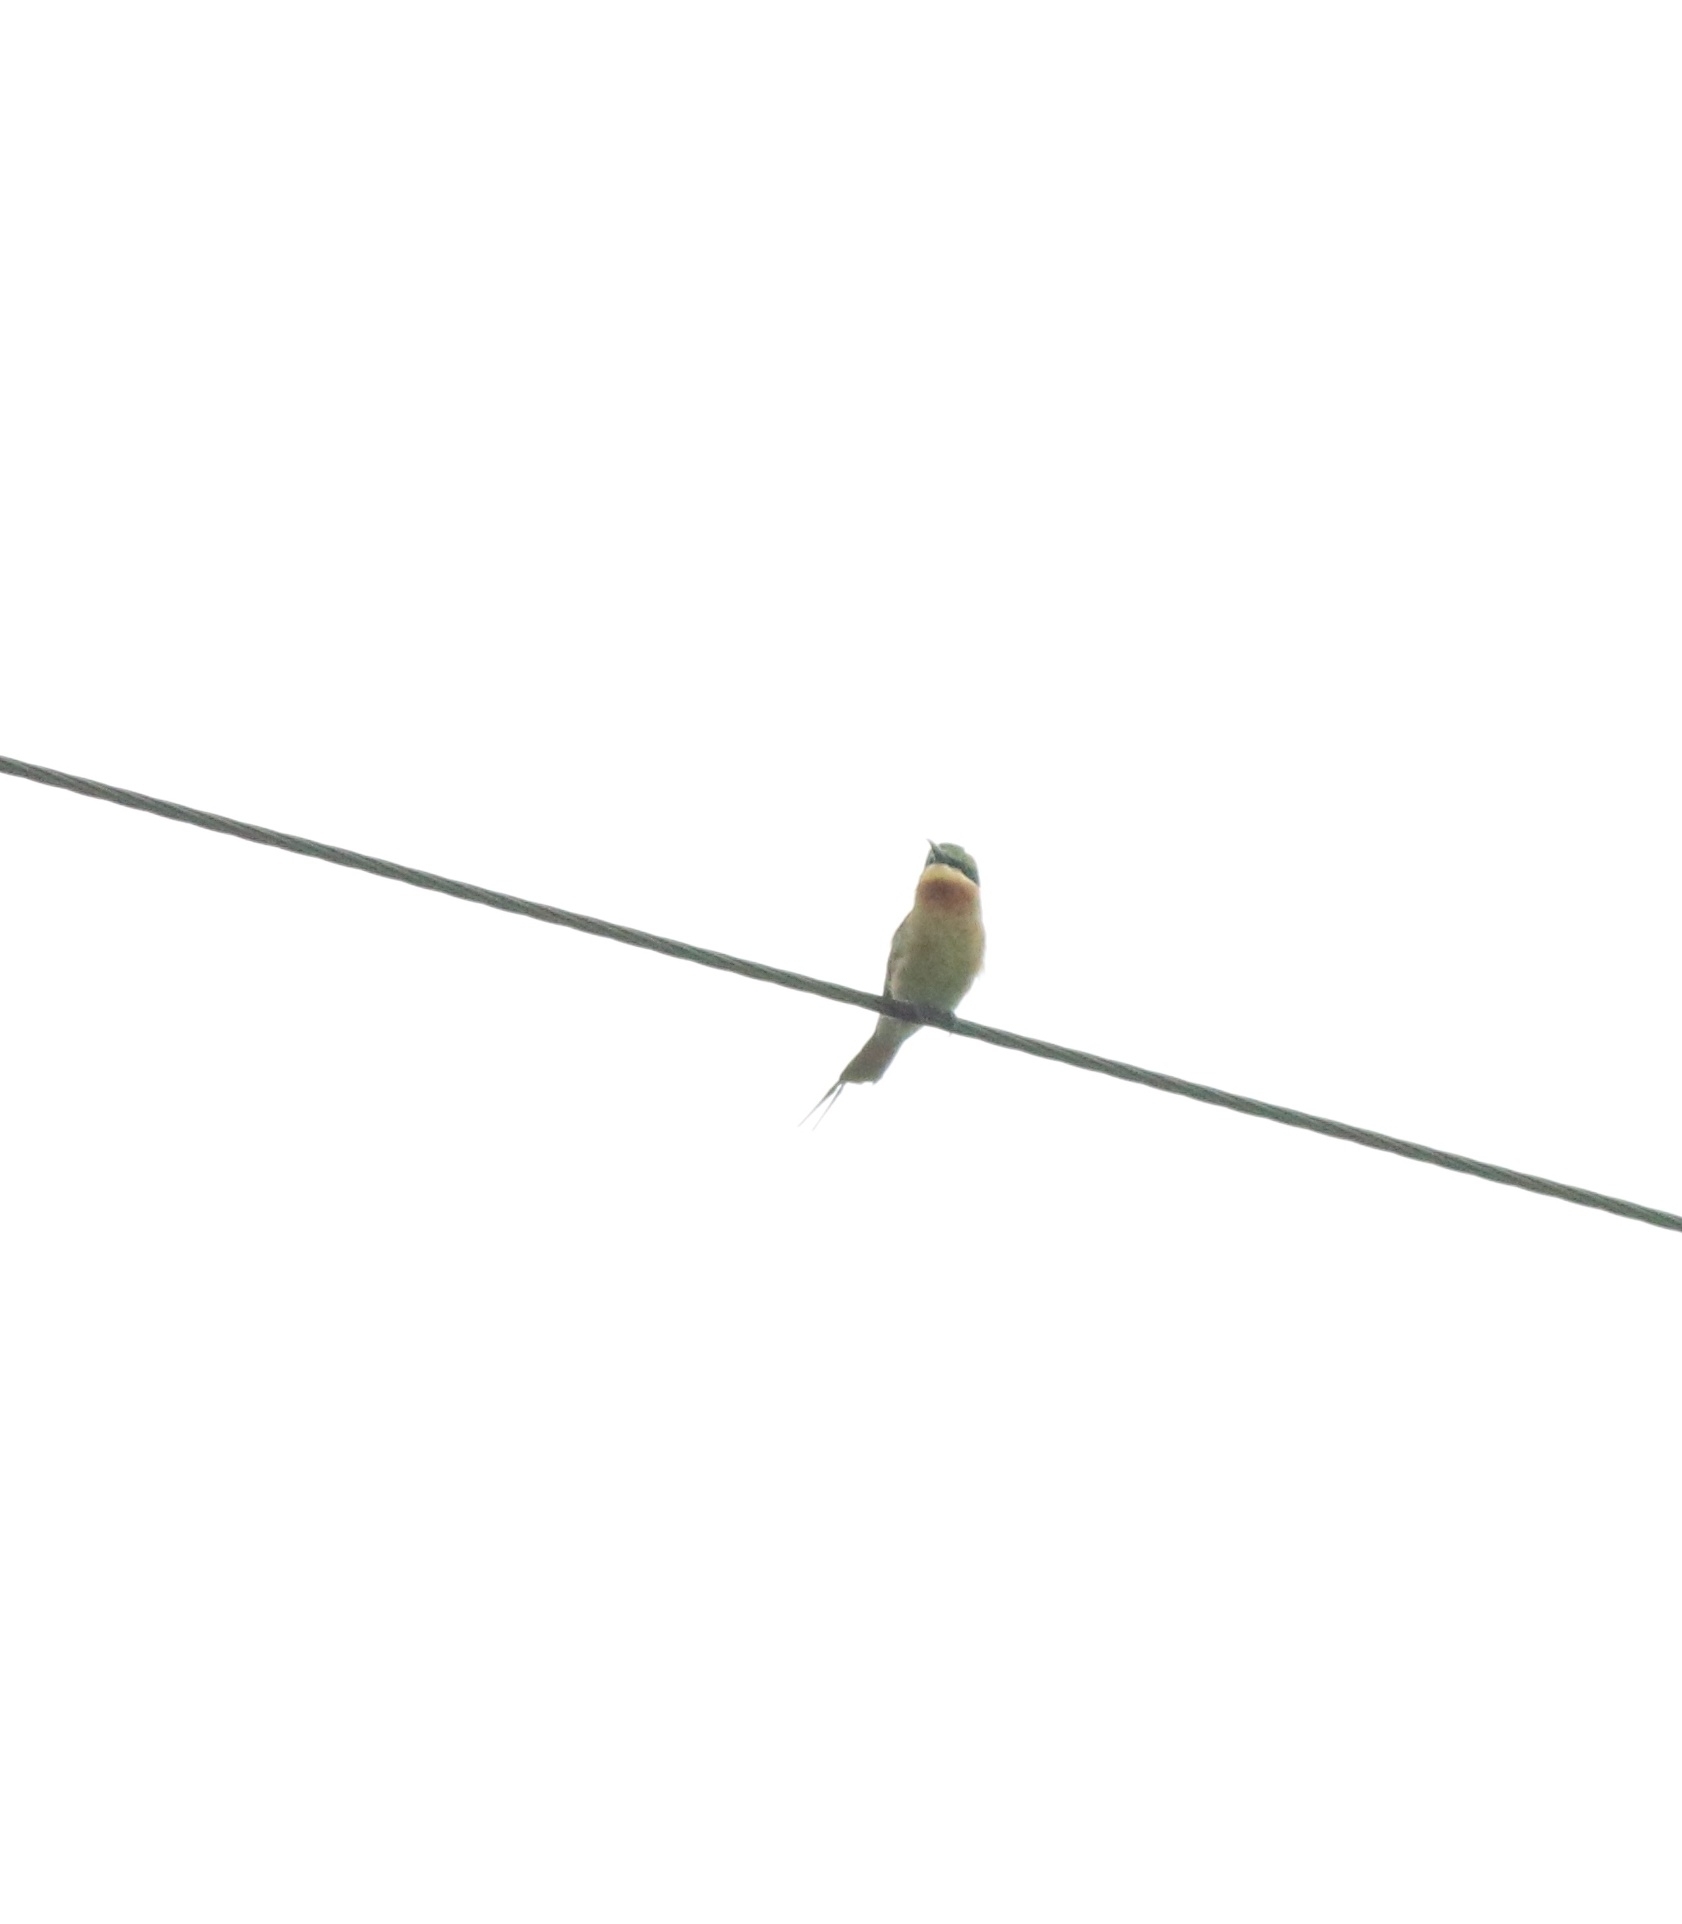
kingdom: Animalia
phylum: Chordata
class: Aves
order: Coraciiformes
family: Meropidae
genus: Merops
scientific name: Merops philippinus
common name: Blue-tailed bee-eater
